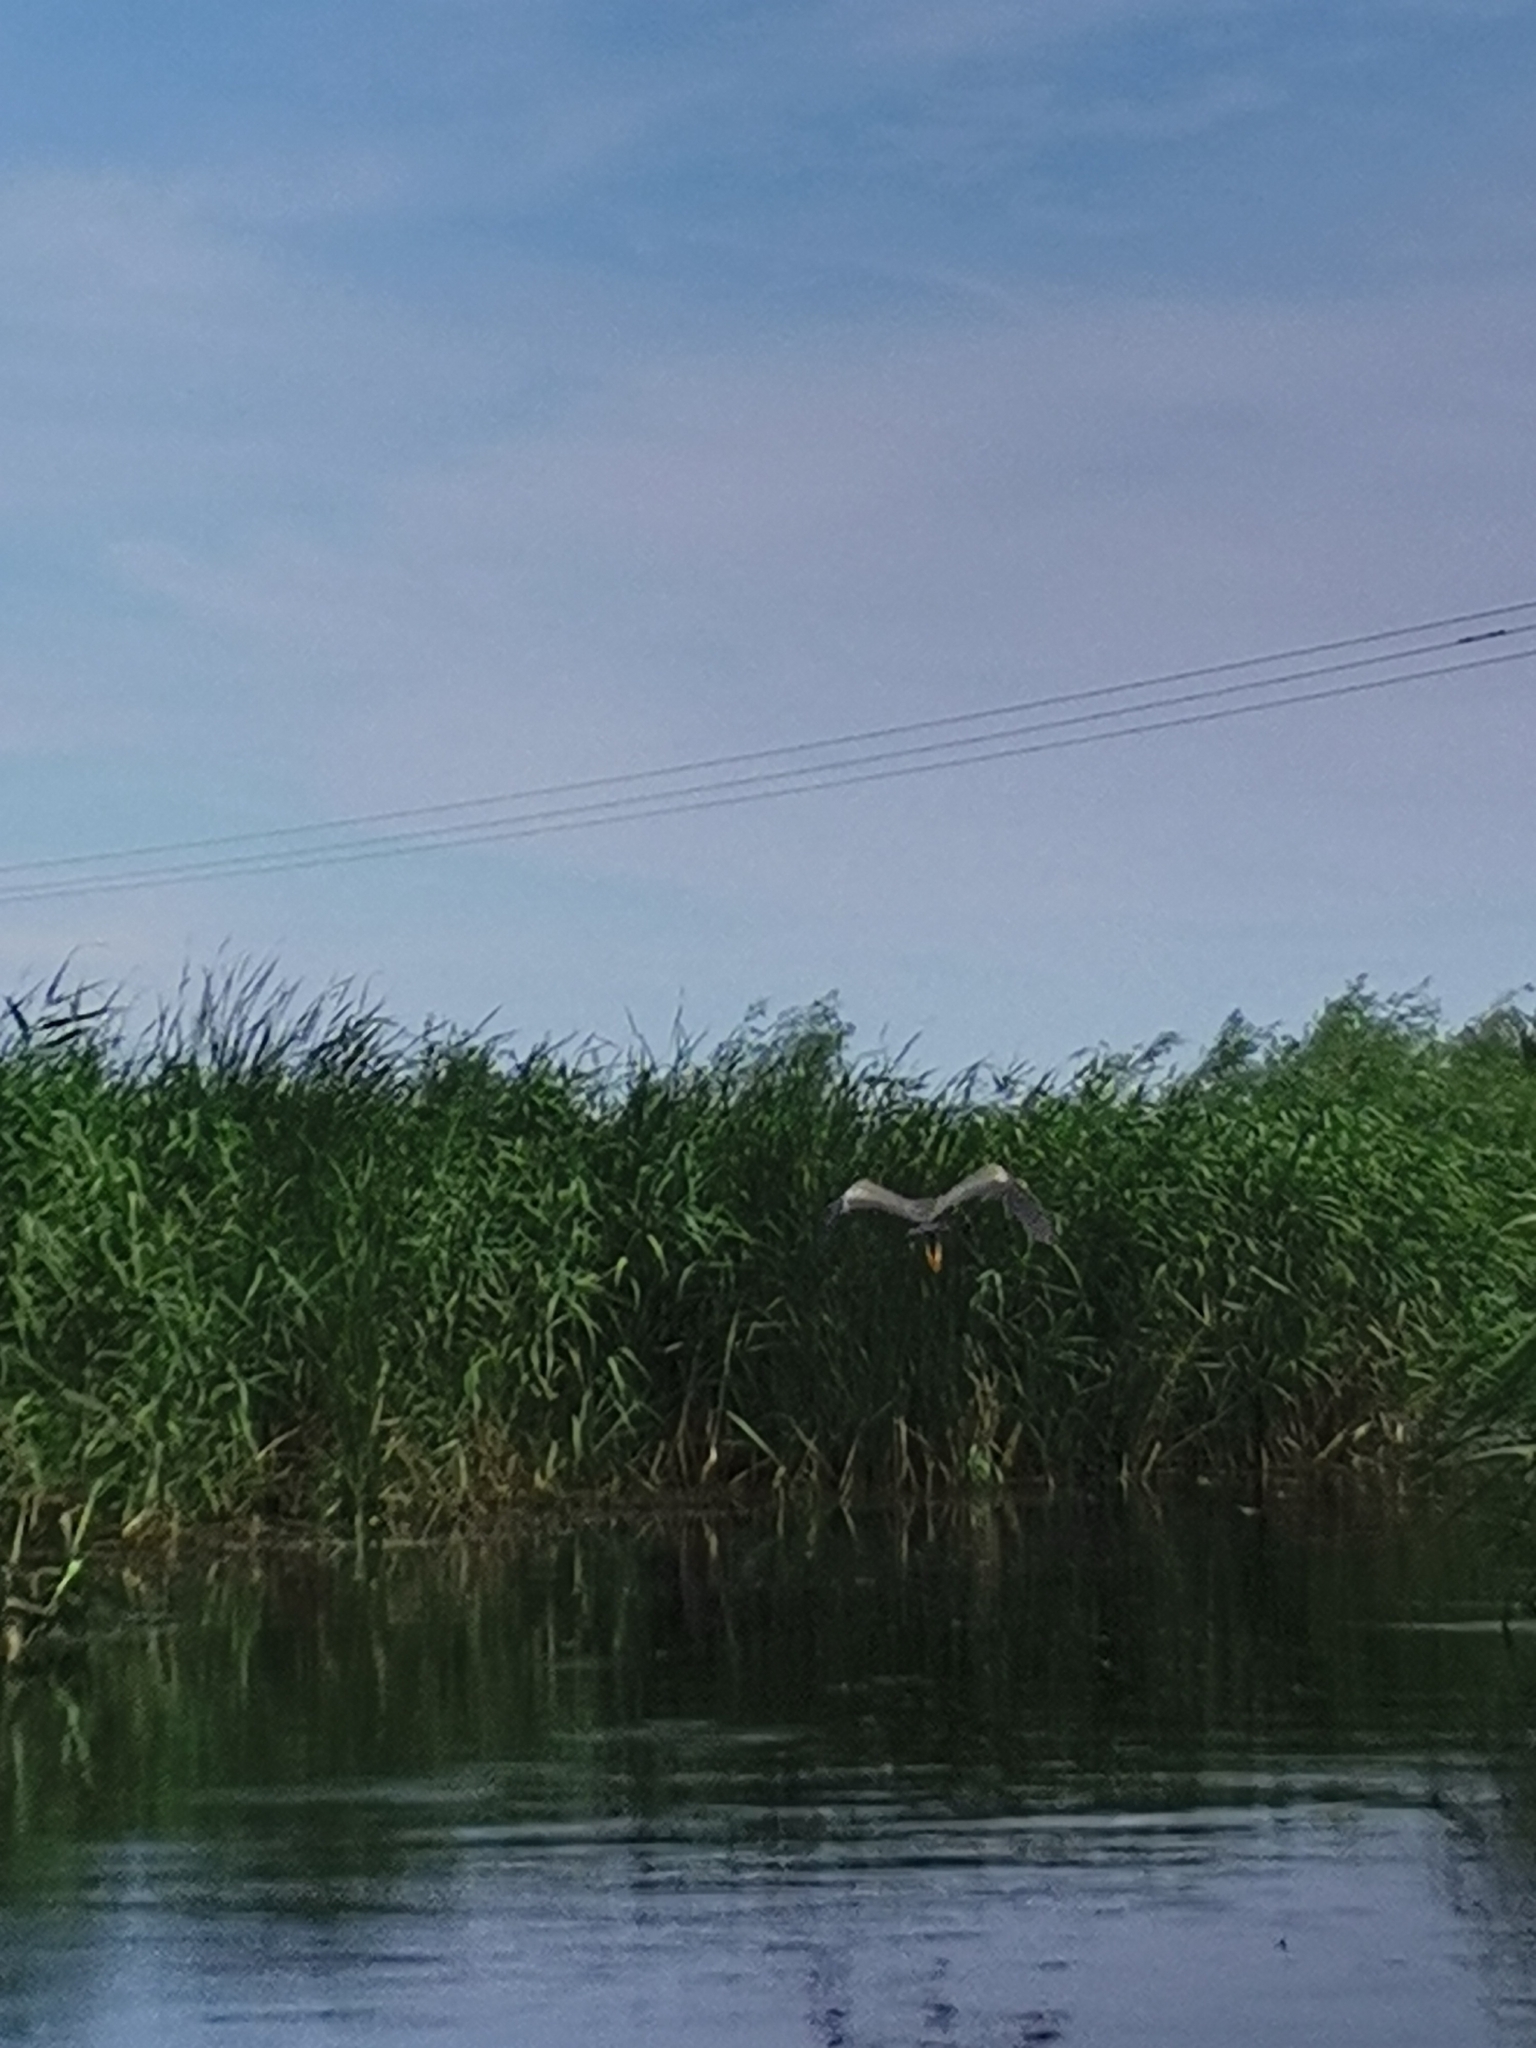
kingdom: Animalia
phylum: Chordata
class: Aves
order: Pelecaniformes
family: Ardeidae
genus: Ardea
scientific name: Ardea purpurea
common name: Purple heron
